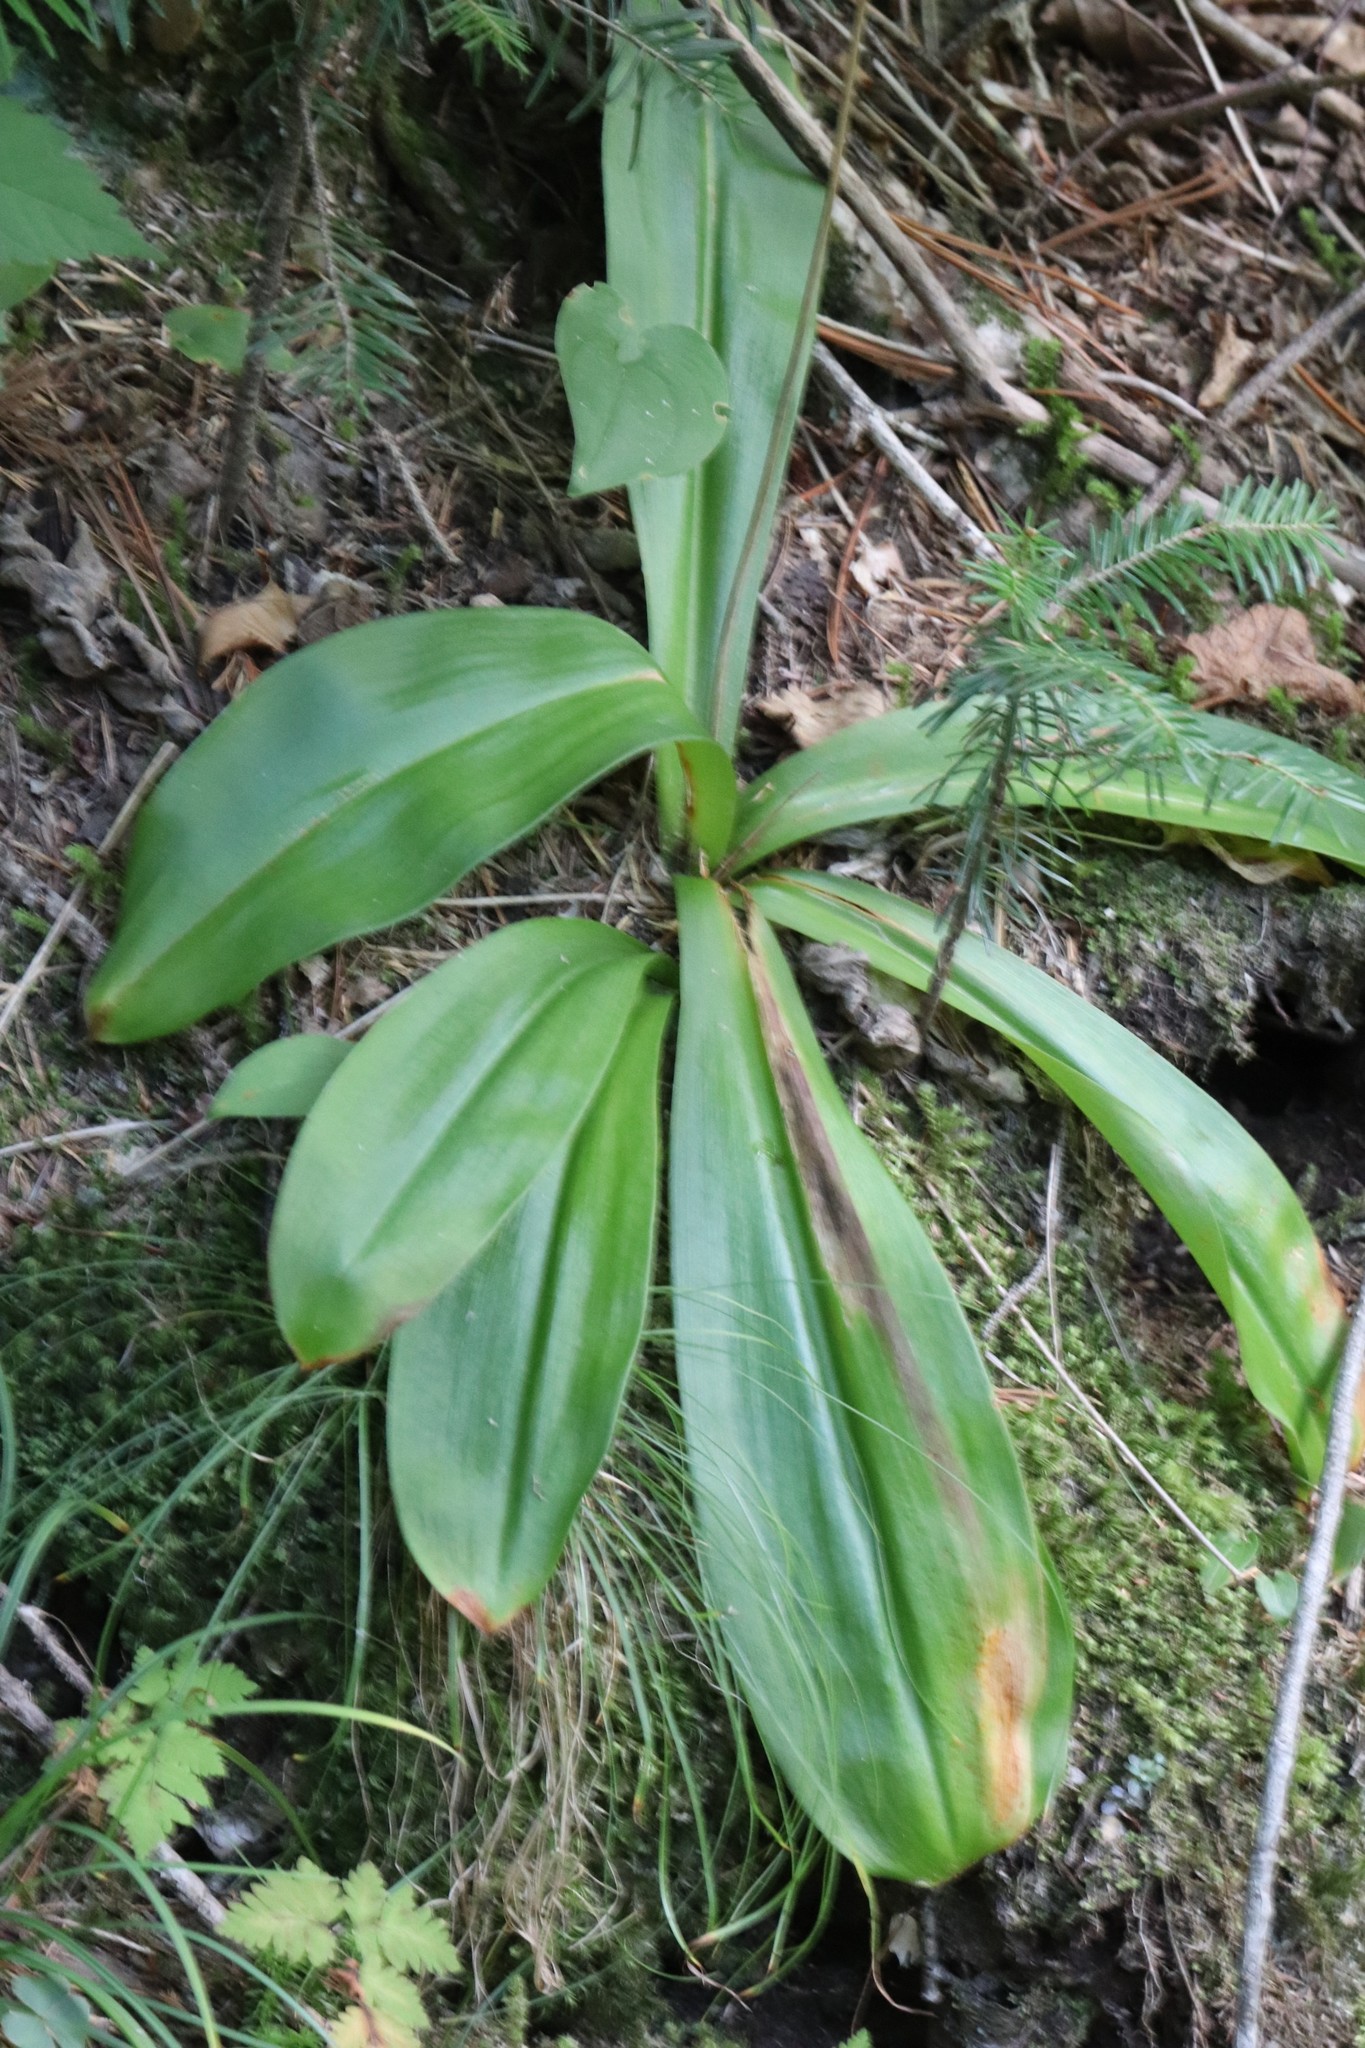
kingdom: Plantae
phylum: Tracheophyta
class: Liliopsida
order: Liliales
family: Liliaceae
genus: Clintonia
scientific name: Clintonia udensis
